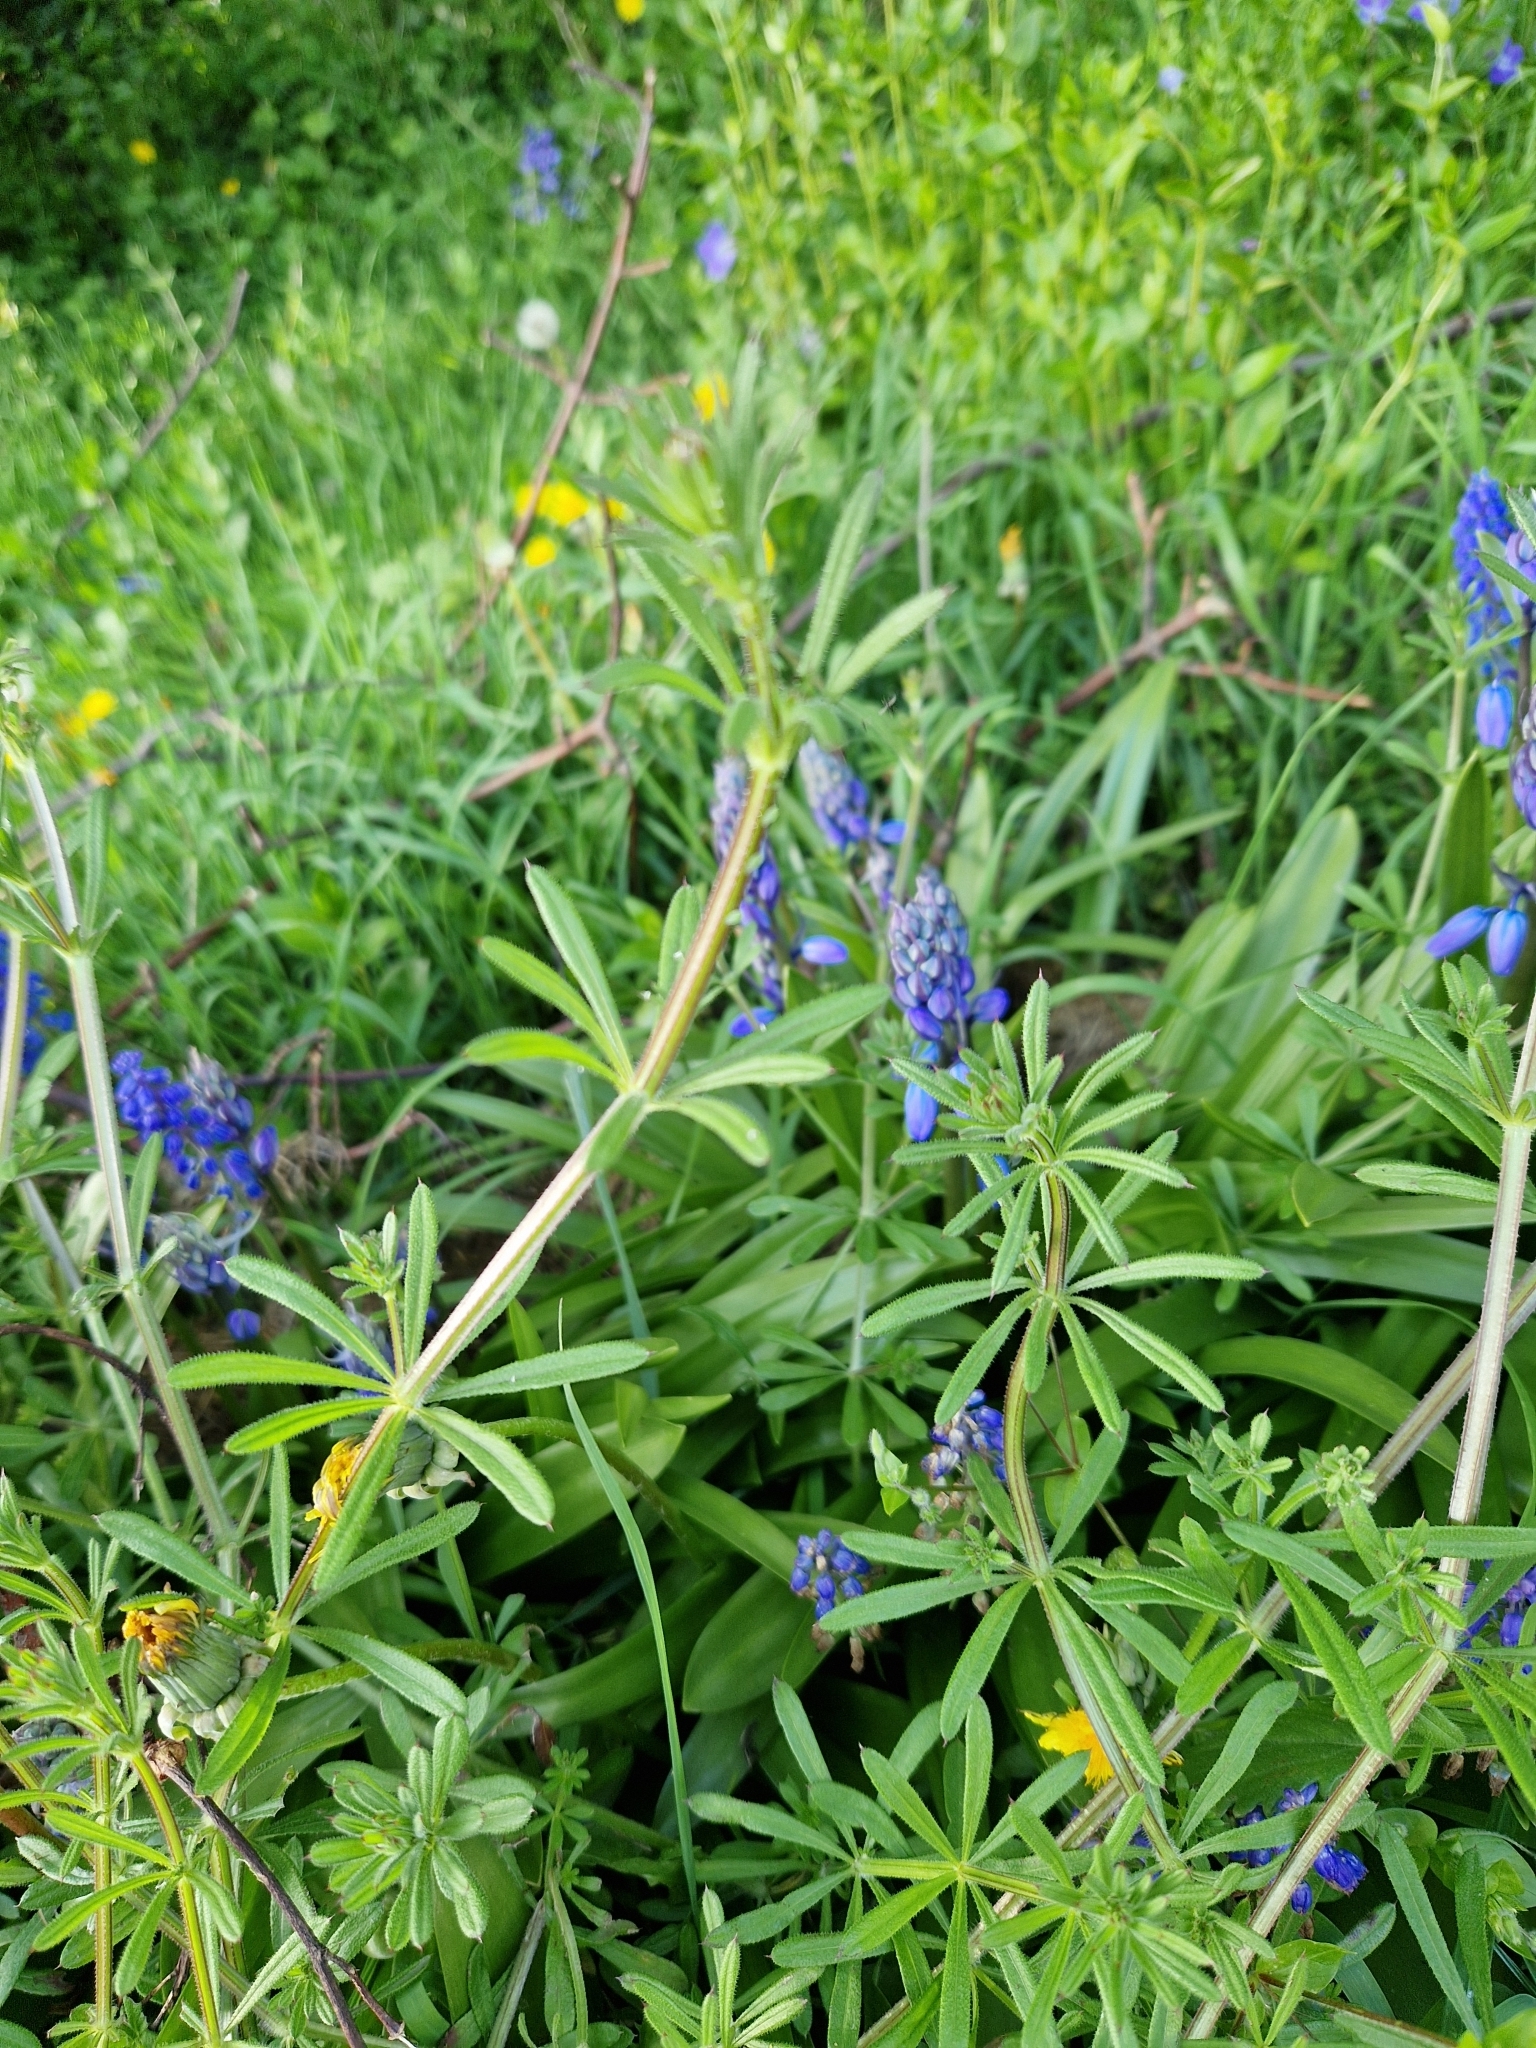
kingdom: Plantae
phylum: Tracheophyta
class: Magnoliopsida
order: Gentianales
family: Rubiaceae
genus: Galium
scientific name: Galium aparine
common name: Cleavers
